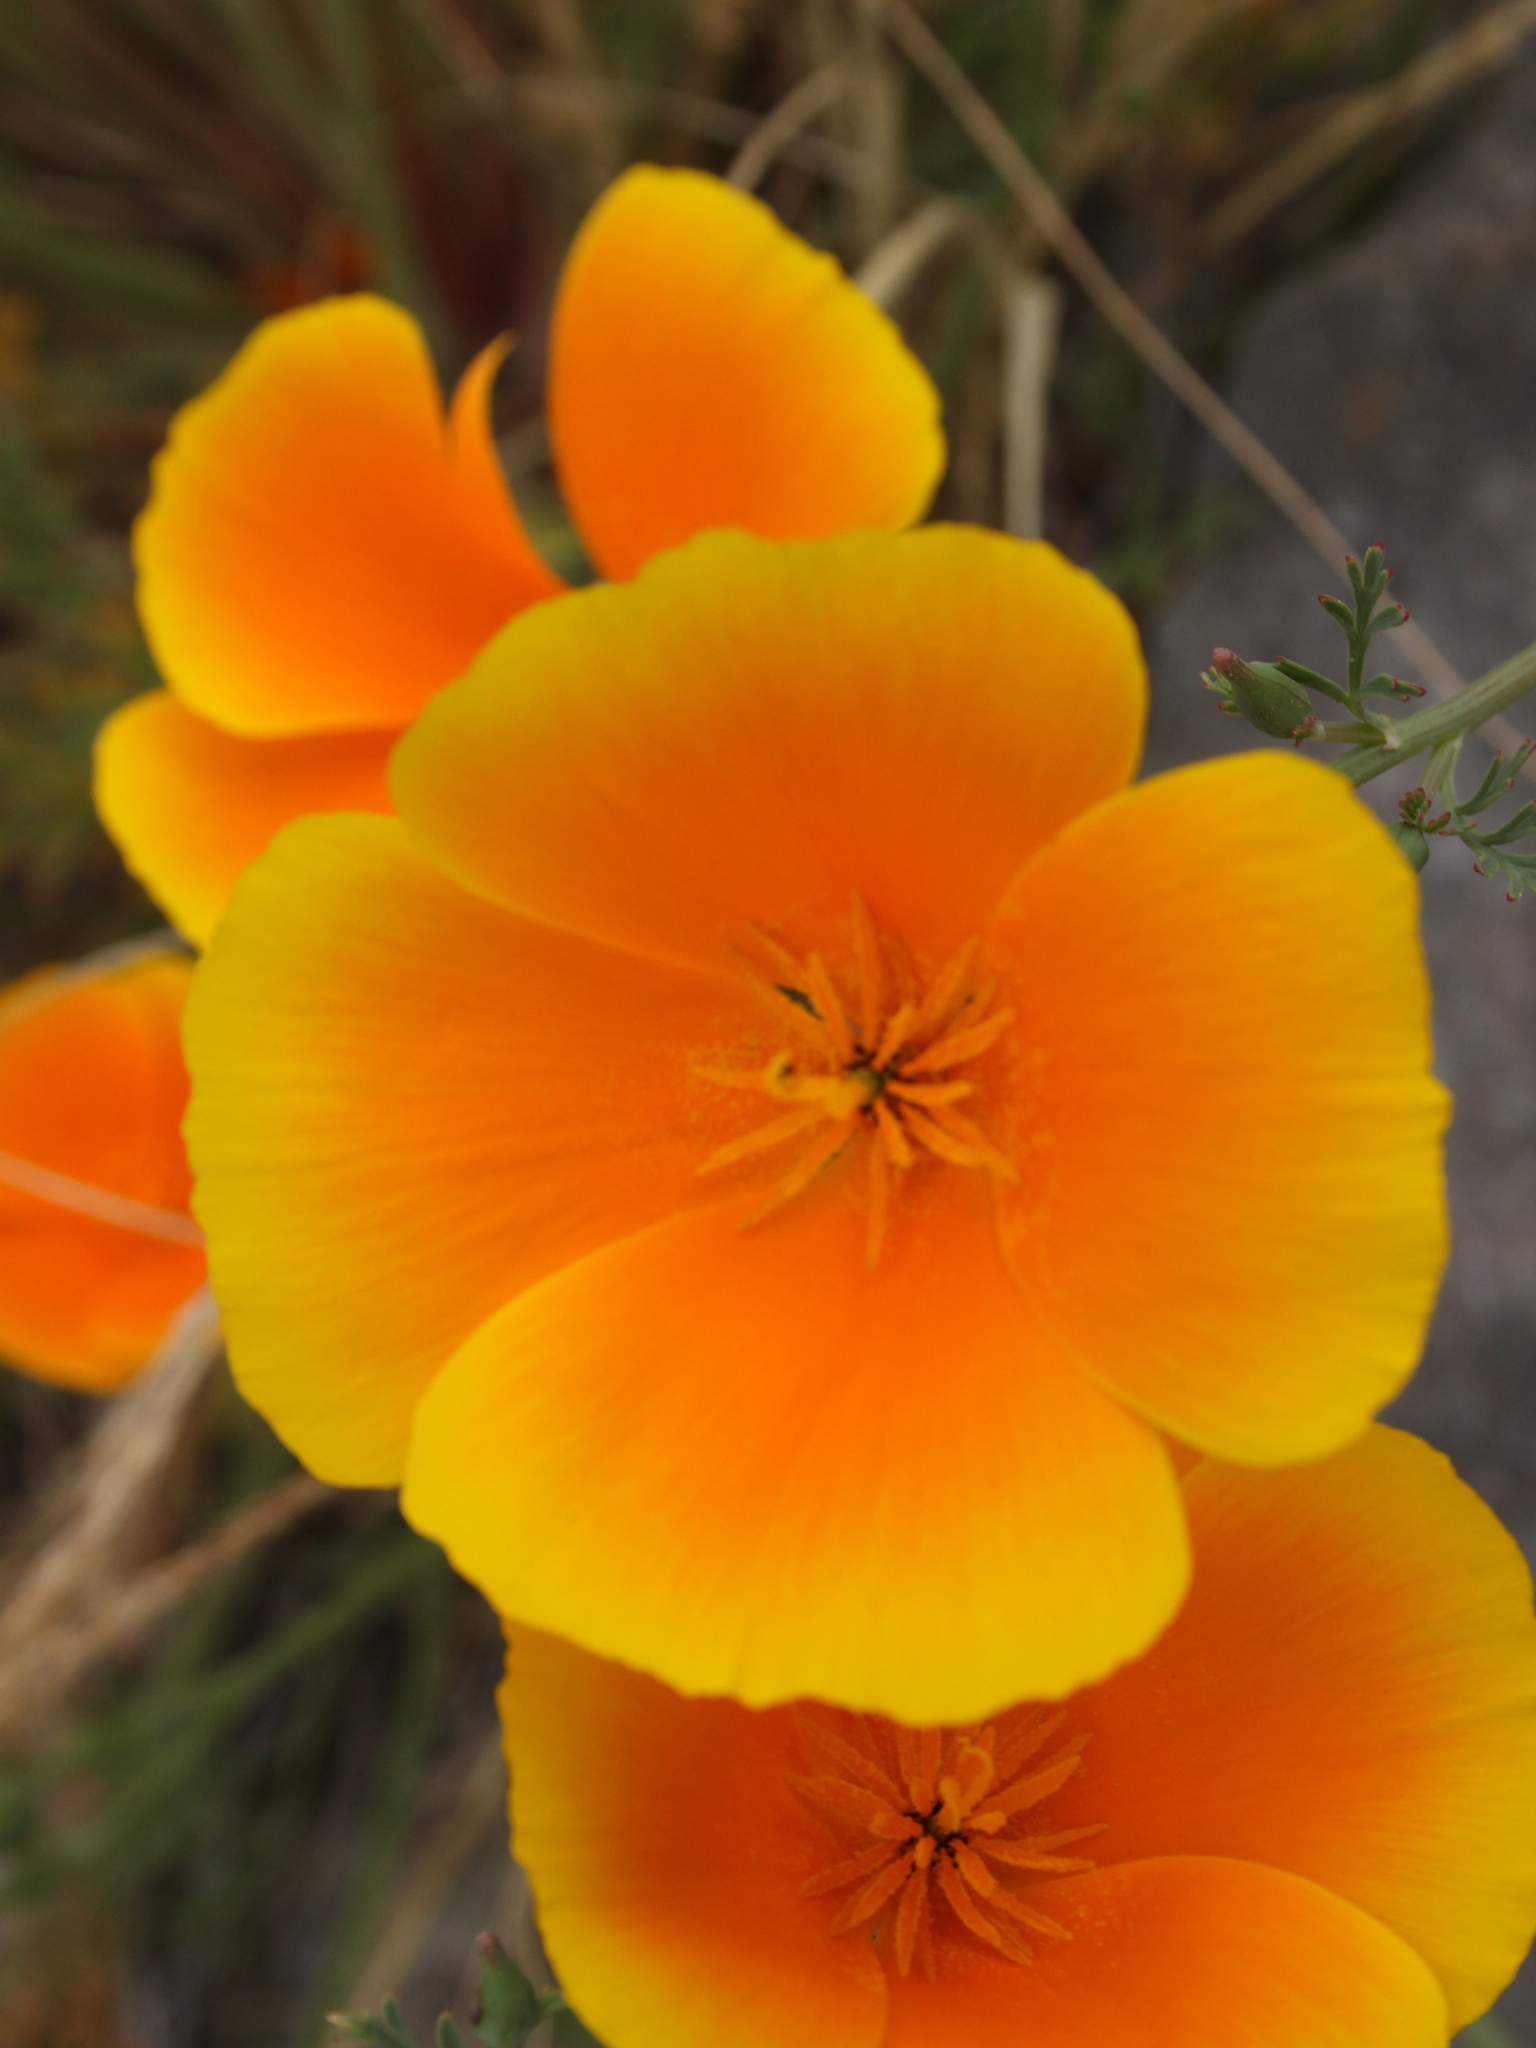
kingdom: Plantae
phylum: Tracheophyta
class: Magnoliopsida
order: Ranunculales
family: Papaveraceae
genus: Eschscholzia
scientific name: Eschscholzia californica
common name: California poppy
